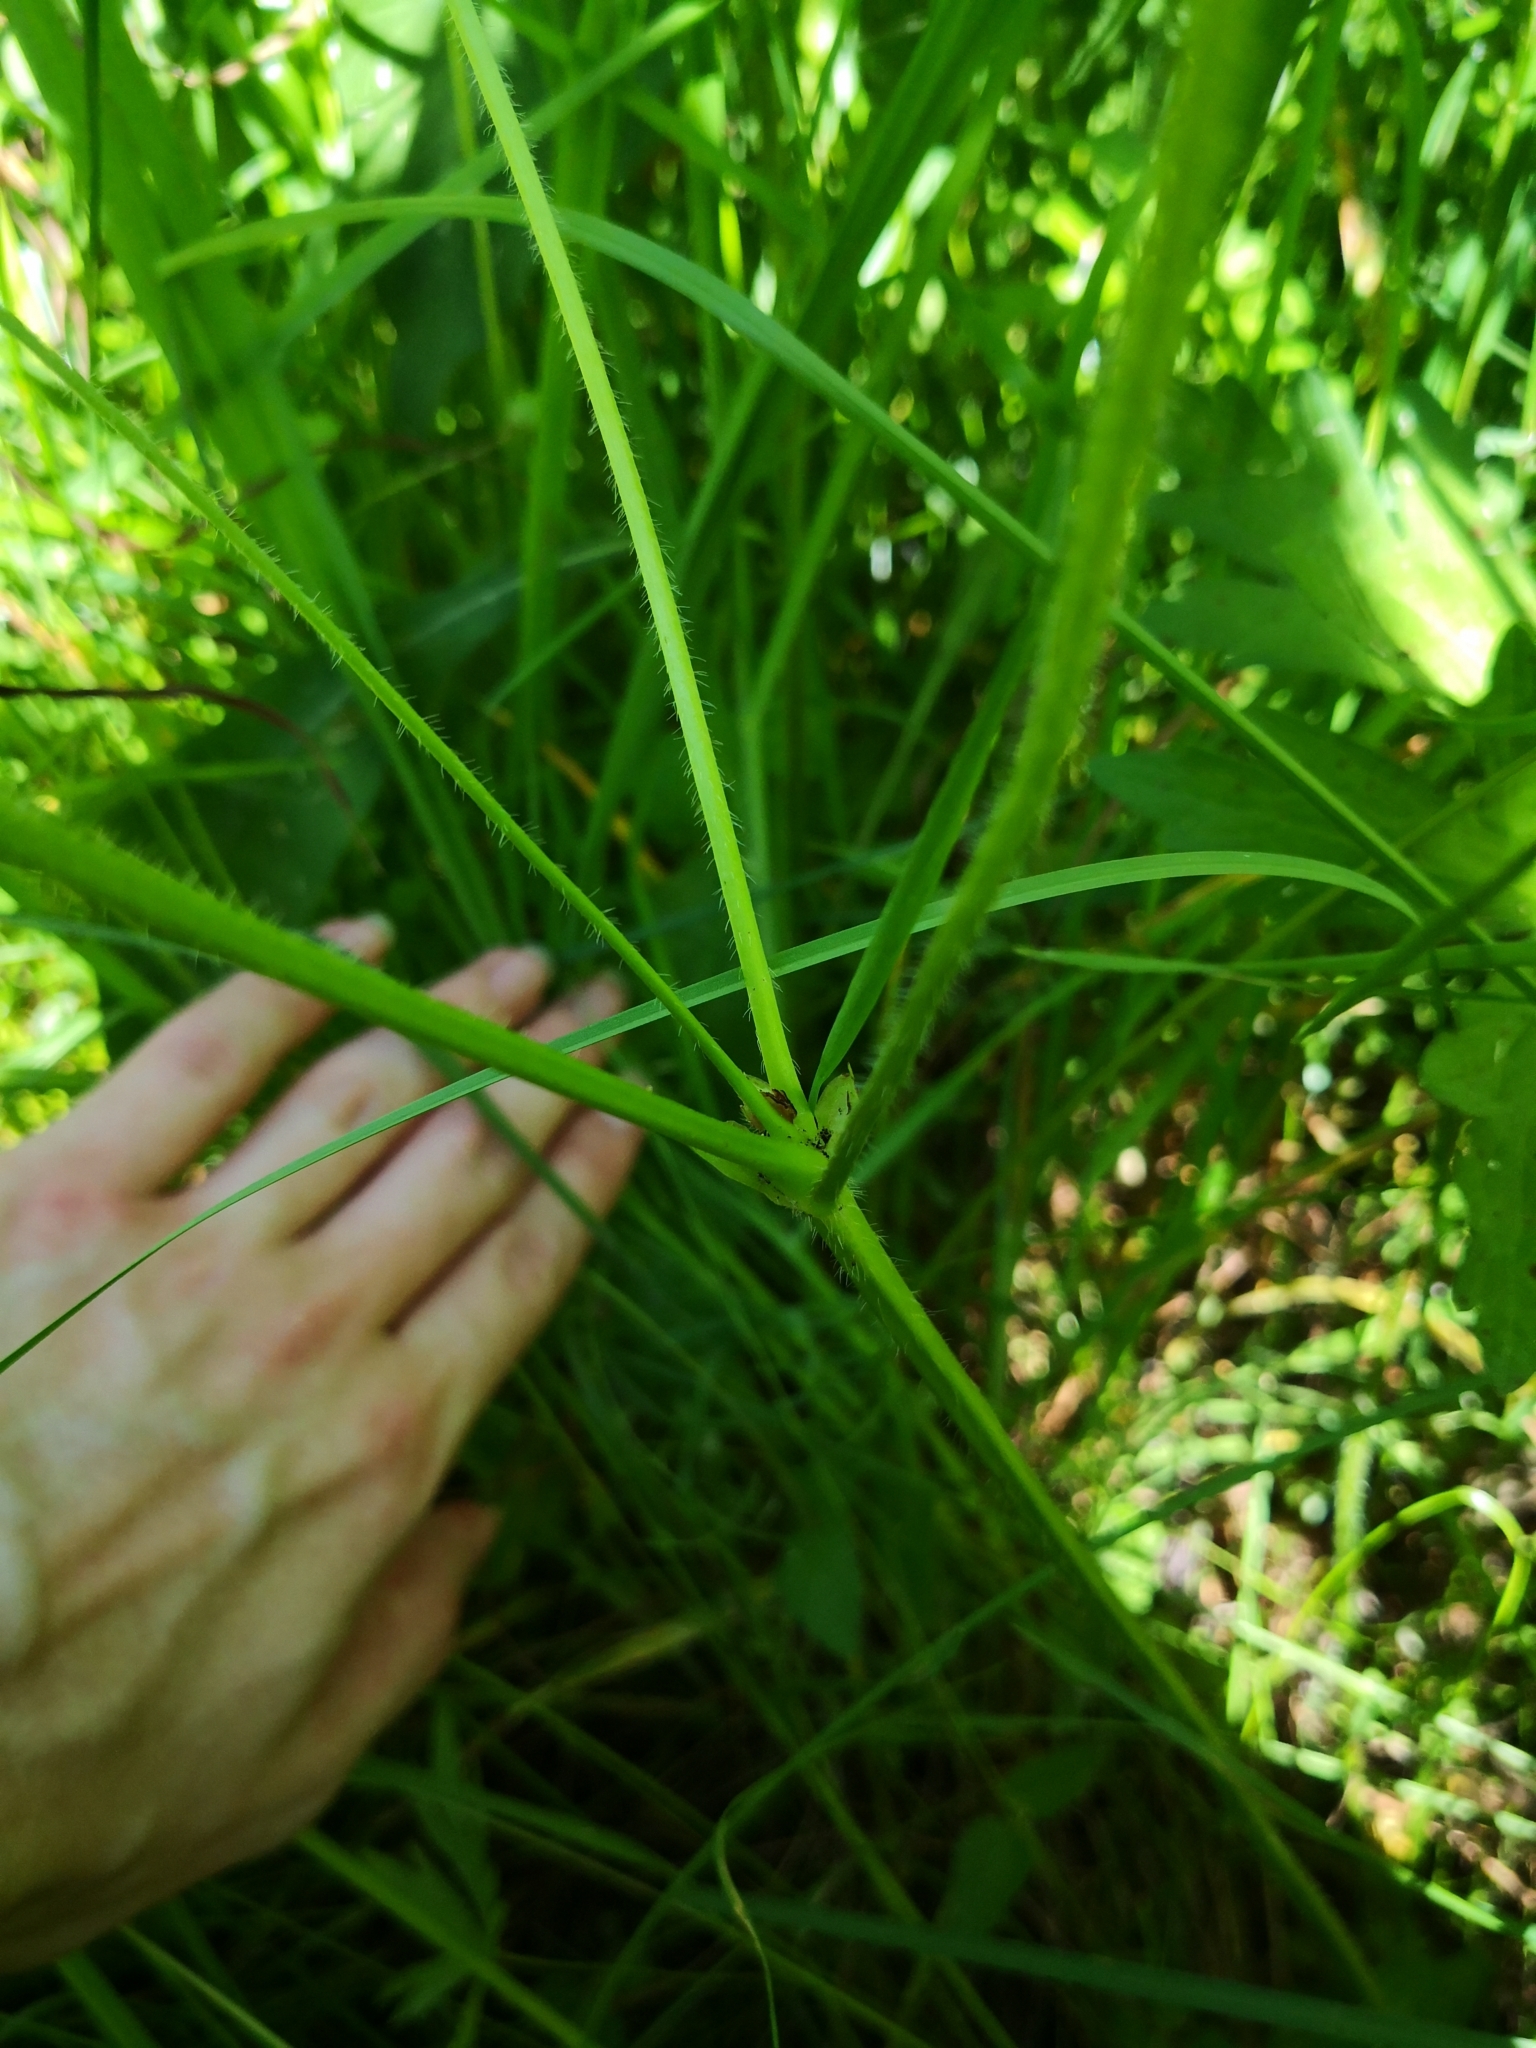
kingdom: Plantae
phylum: Tracheophyta
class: Magnoliopsida
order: Geraniales
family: Geraniaceae
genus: Geranium
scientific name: Geranium palustre
